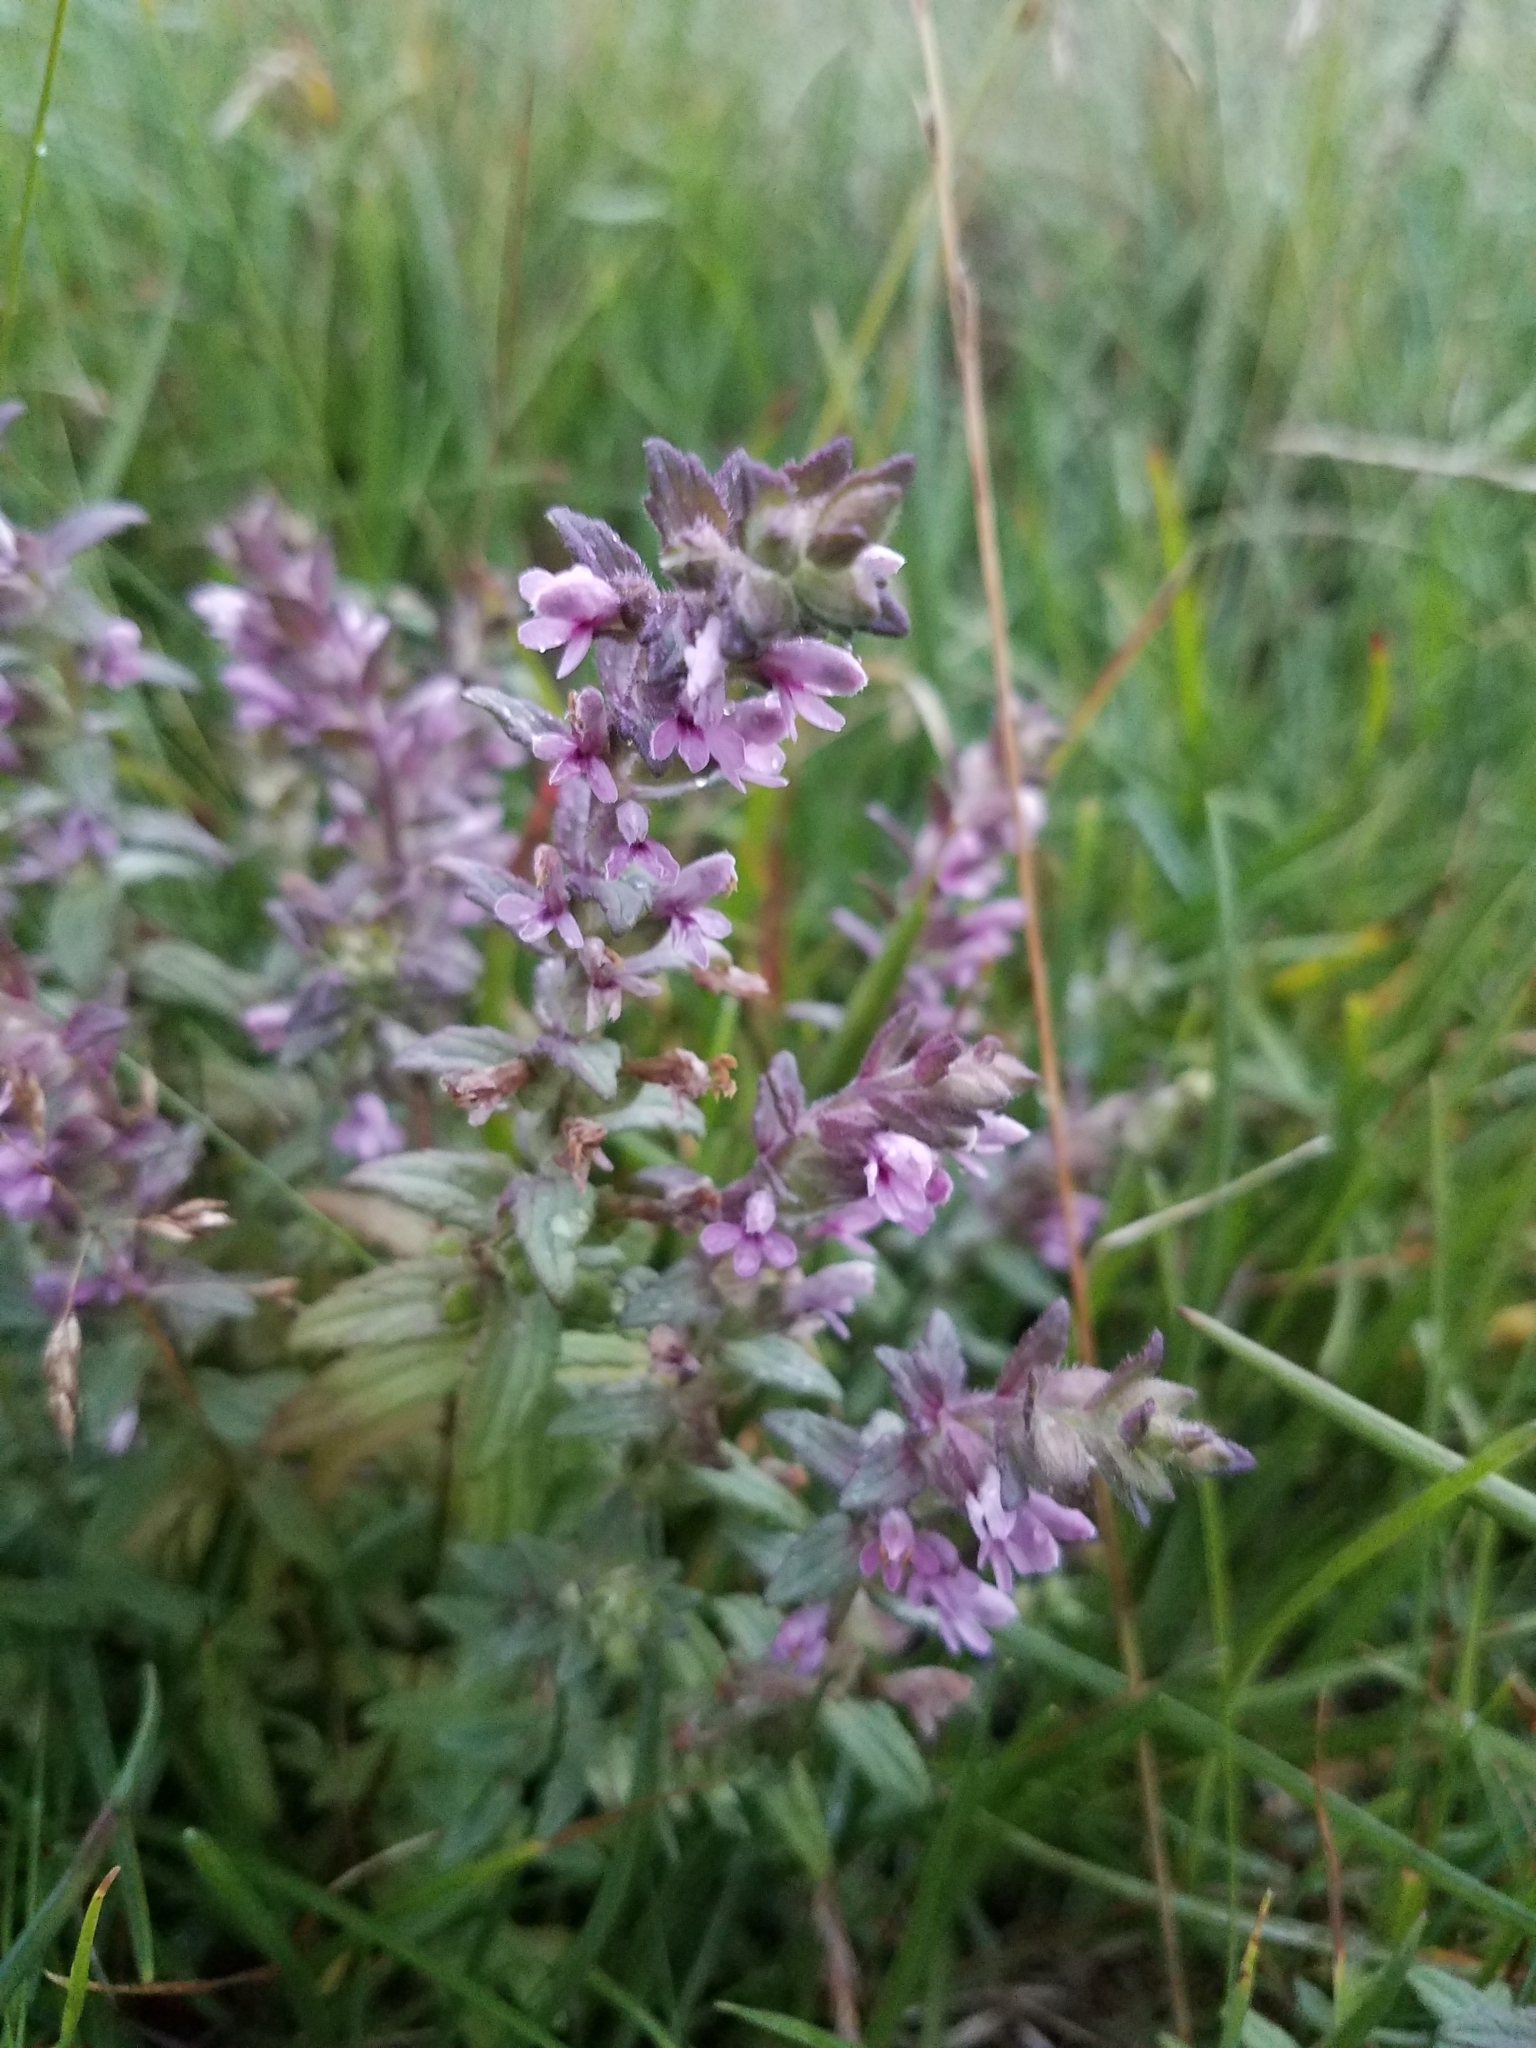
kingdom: Plantae
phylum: Tracheophyta
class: Magnoliopsida
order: Lamiales
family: Orobanchaceae
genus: Odontites
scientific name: Odontites vernus
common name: Red bartsia
